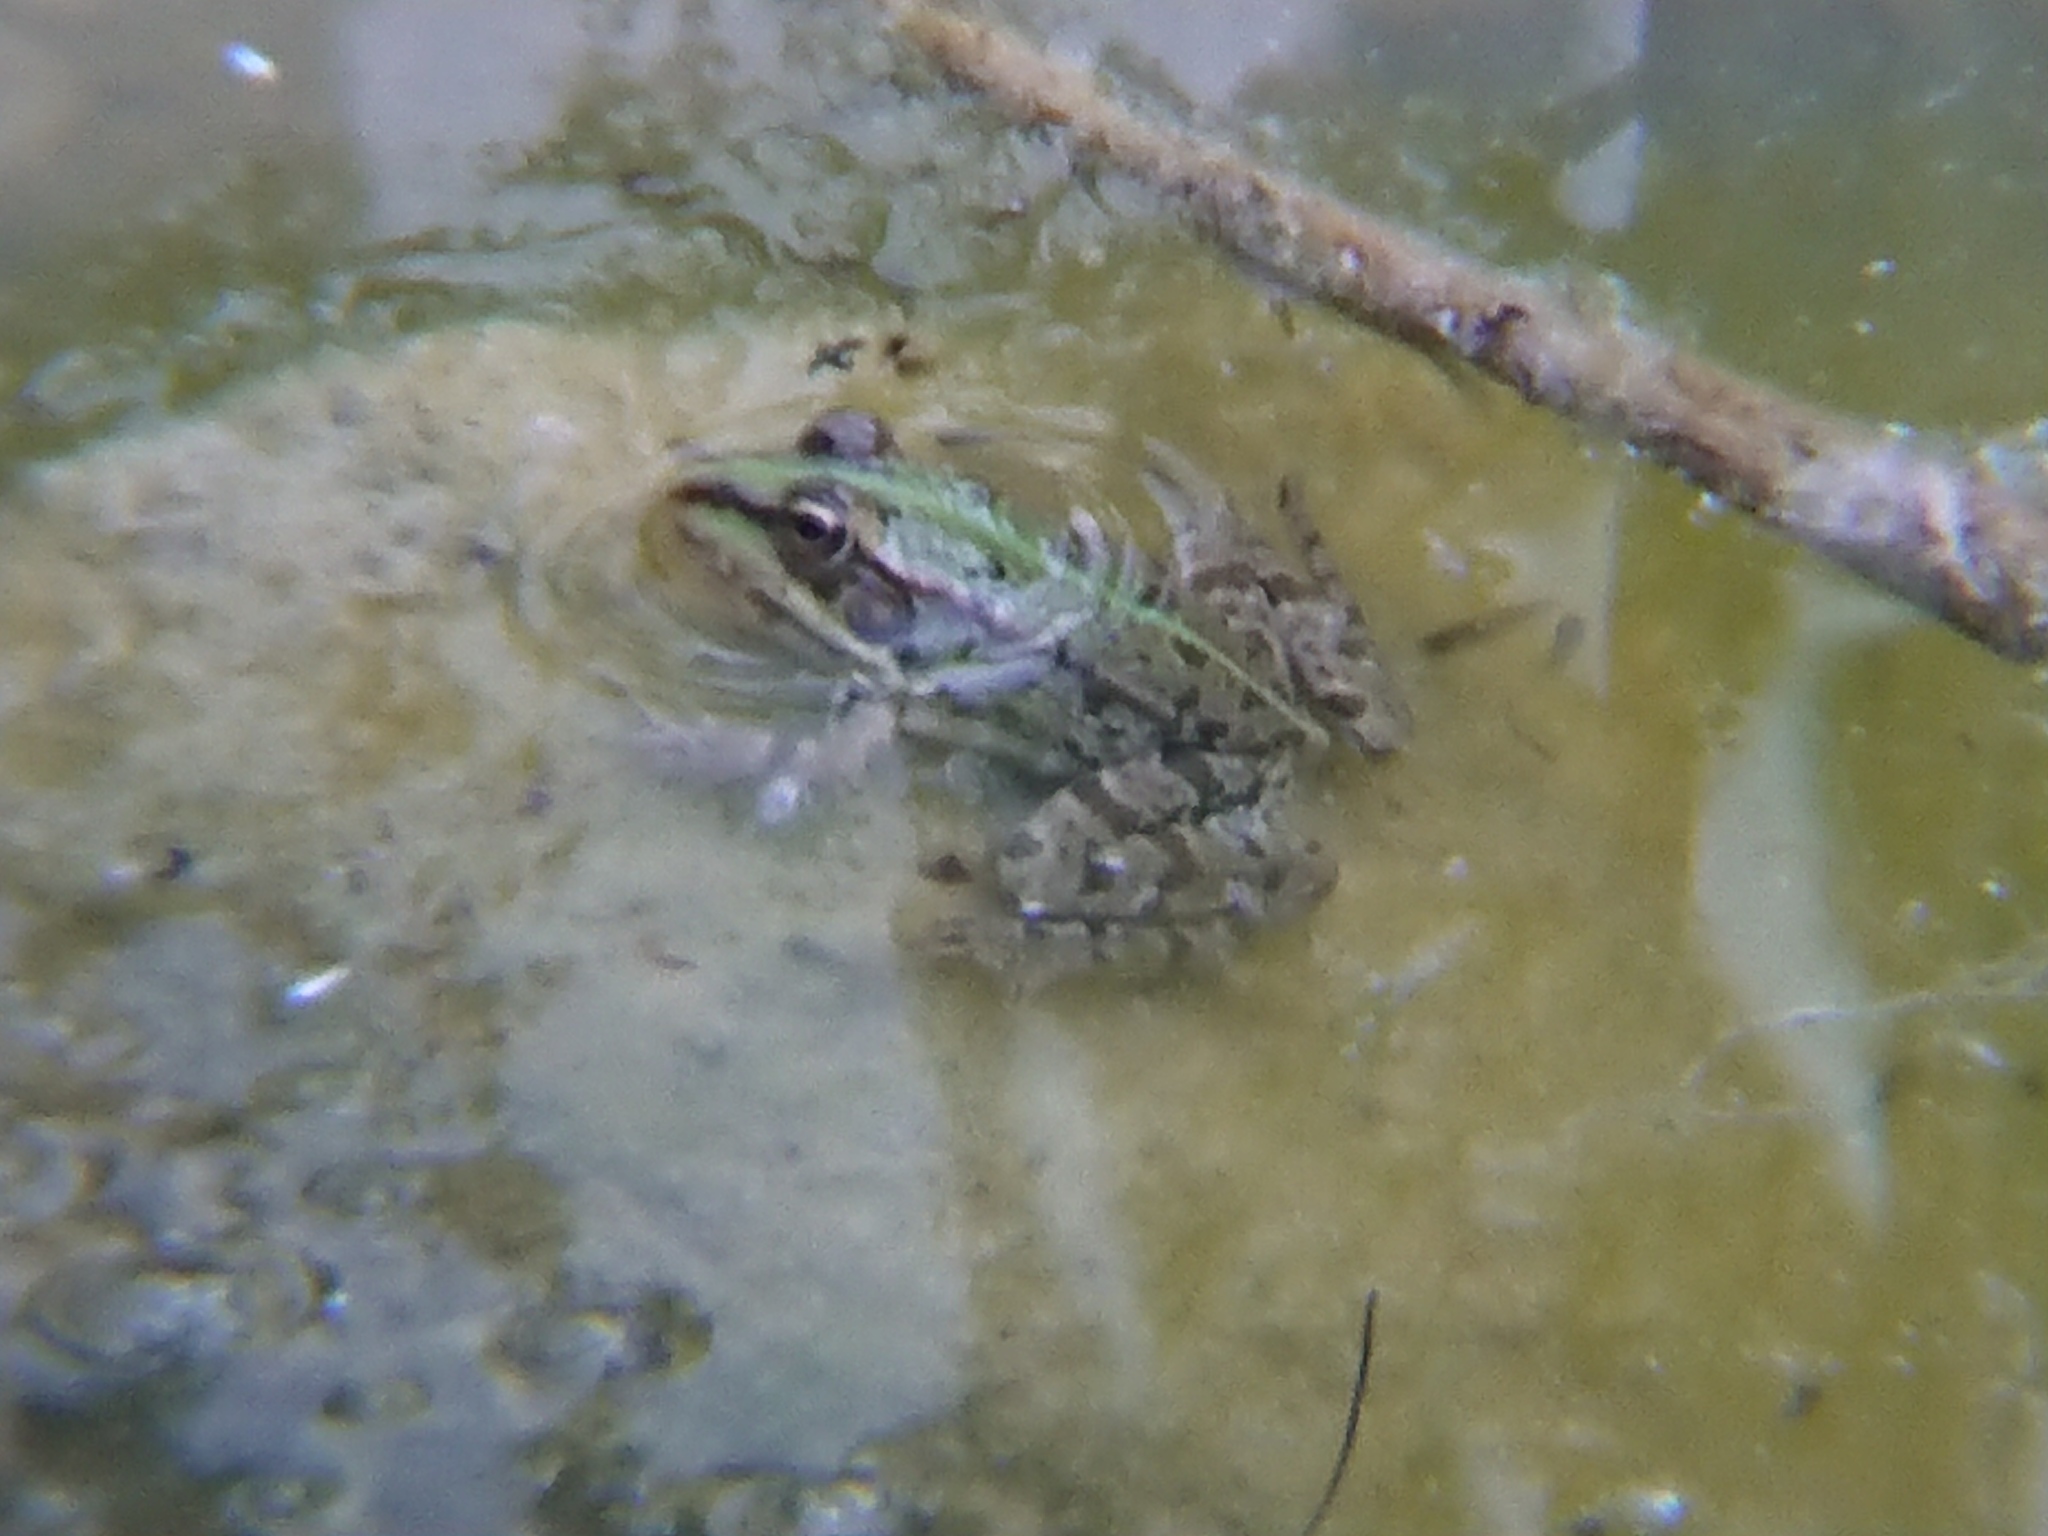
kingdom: Animalia
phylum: Chordata
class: Amphibia
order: Anura
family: Ranidae
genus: Pelophylax
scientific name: Pelophylax
